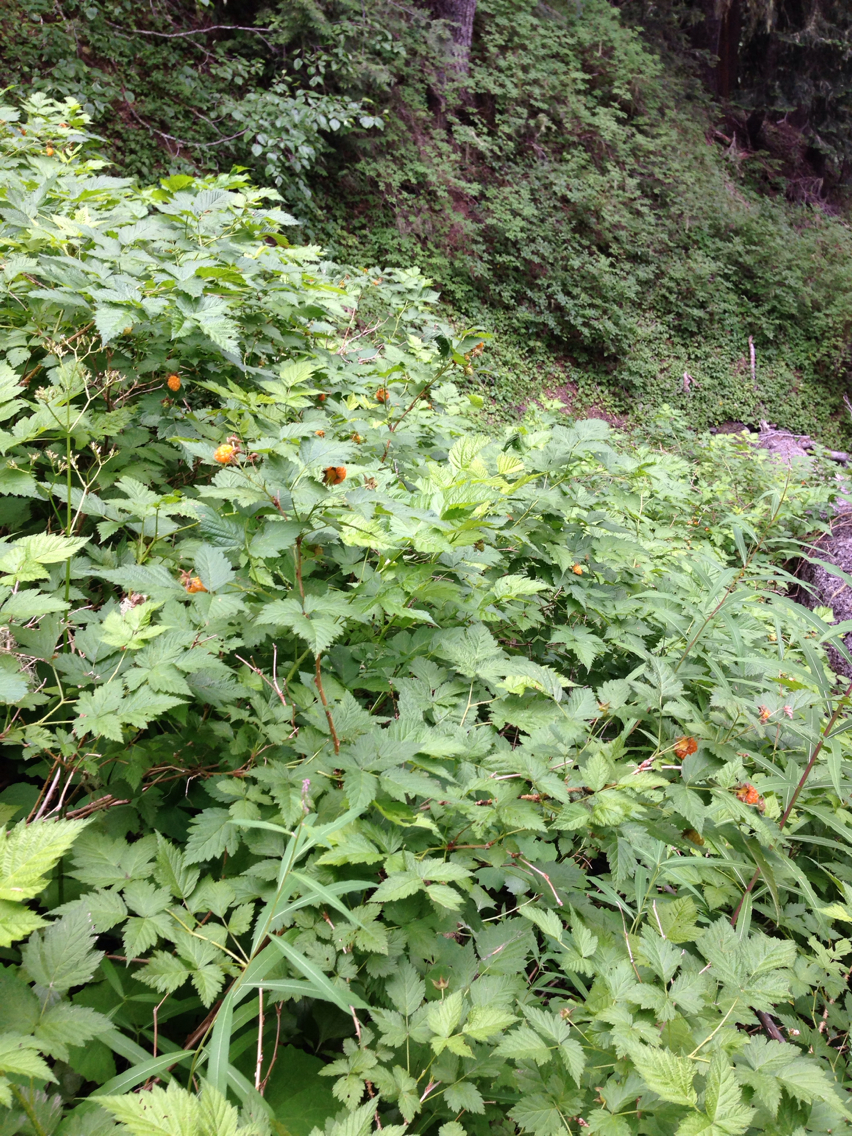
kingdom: Plantae
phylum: Tracheophyta
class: Magnoliopsida
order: Rosales
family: Rosaceae
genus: Rubus
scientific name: Rubus spectabilis
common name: Salmonberry
